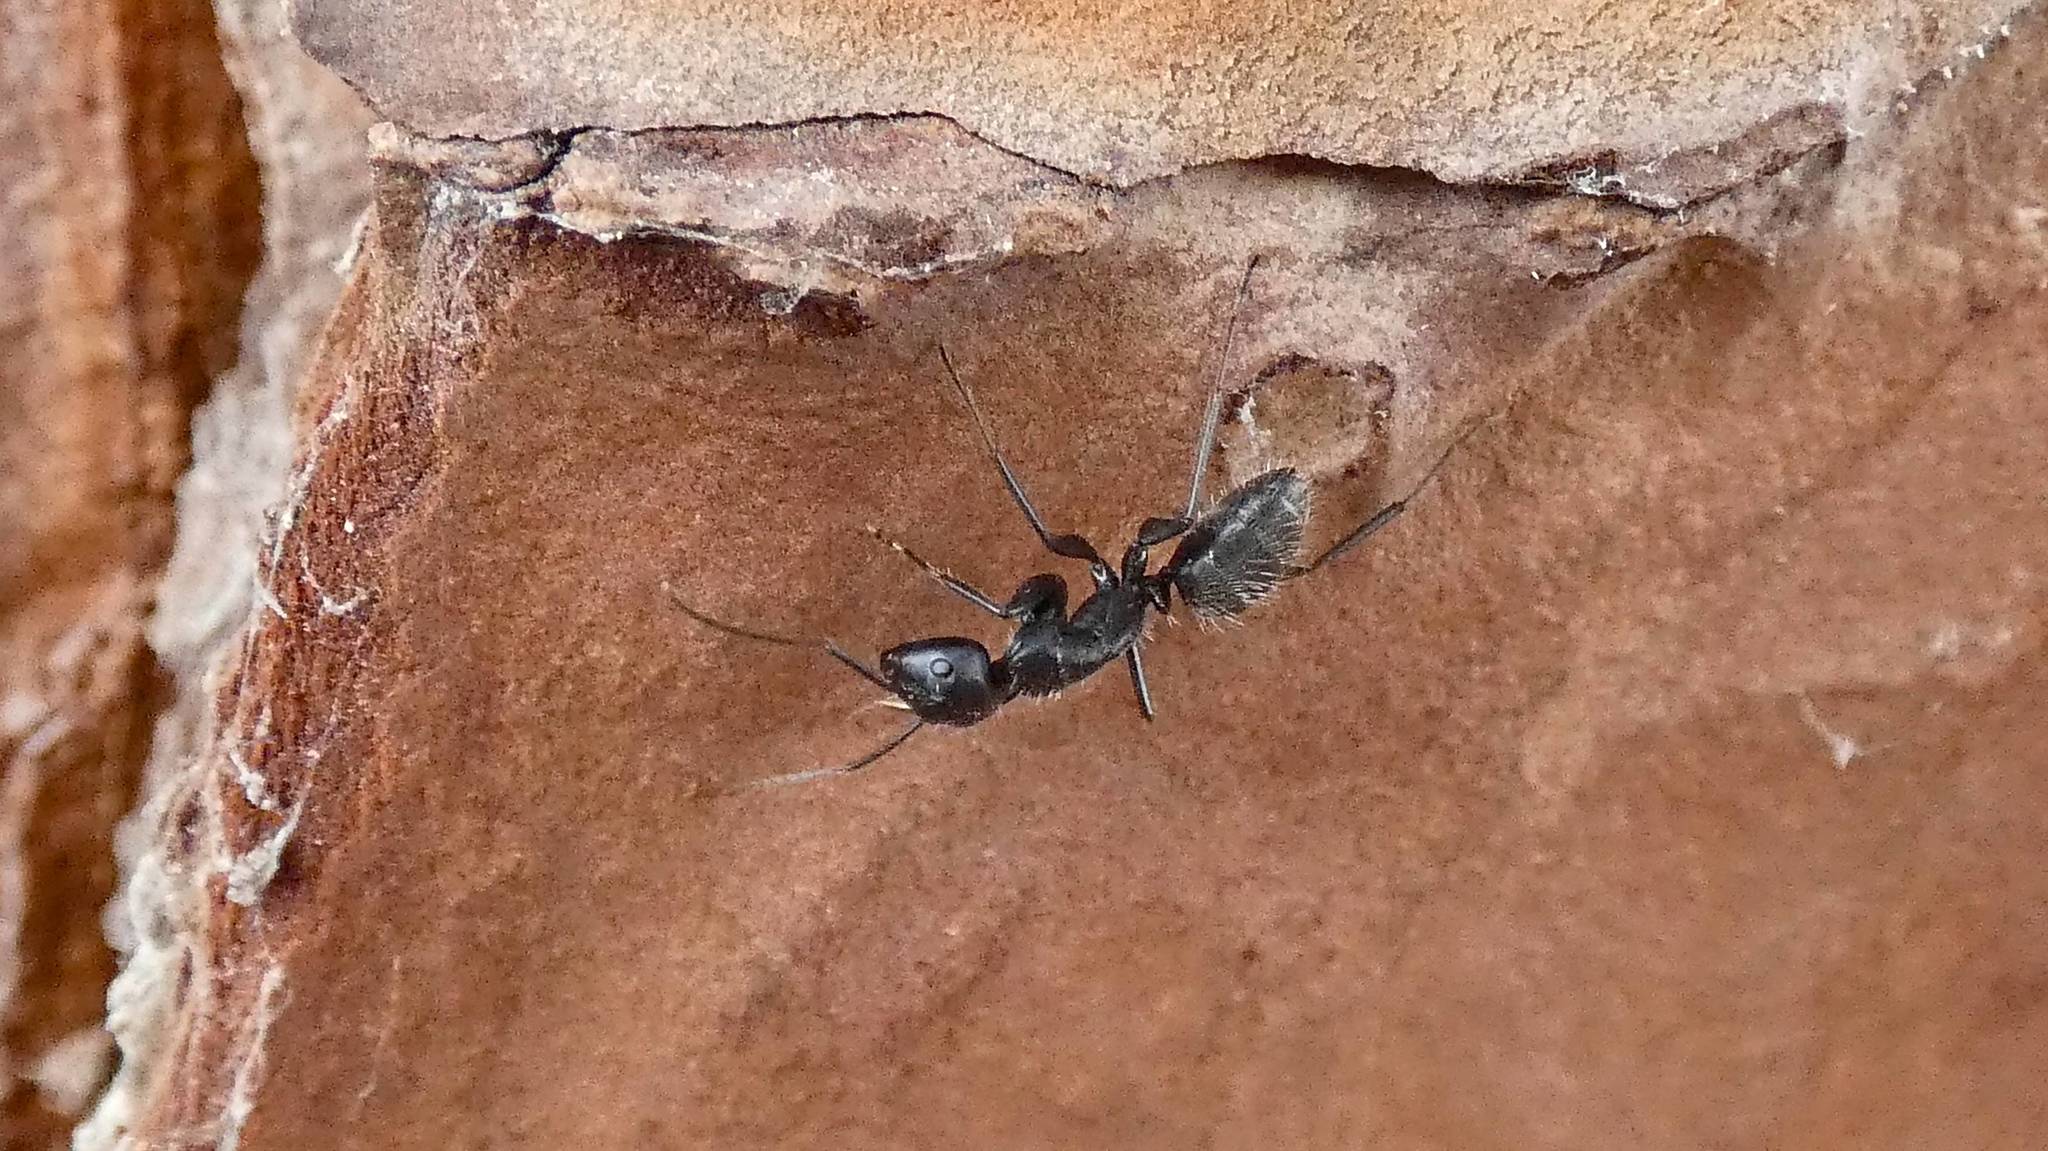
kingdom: Animalia
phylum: Arthropoda
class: Insecta
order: Hymenoptera
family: Formicidae
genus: Camponotus
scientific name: Camponotus vagus
